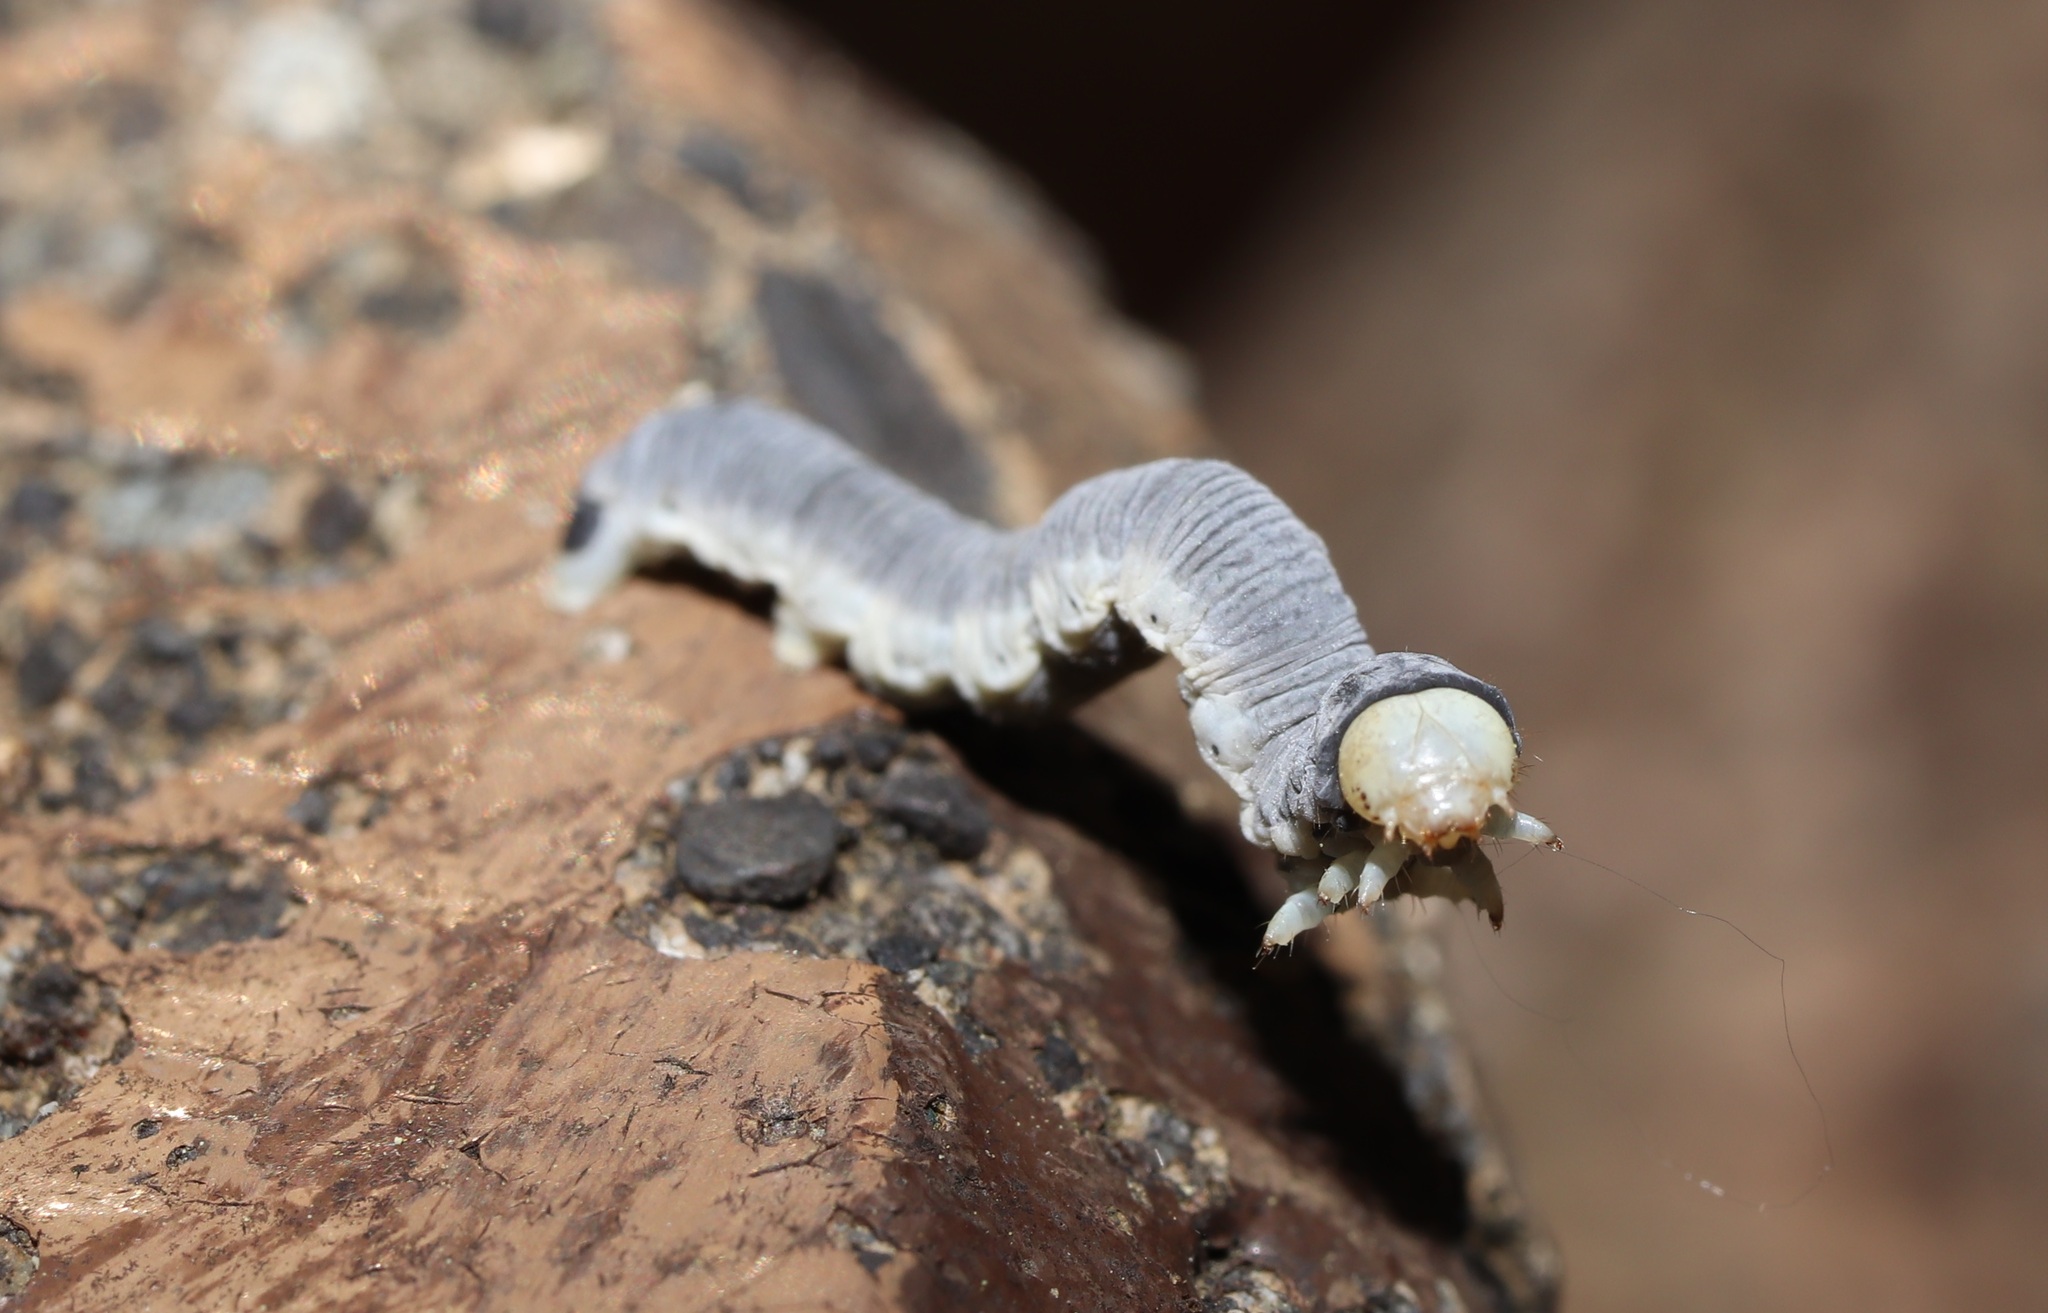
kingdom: Animalia
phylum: Arthropoda
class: Insecta
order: Lepidoptera
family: Geometridae
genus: Wilemania
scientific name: Wilemania nitobei
